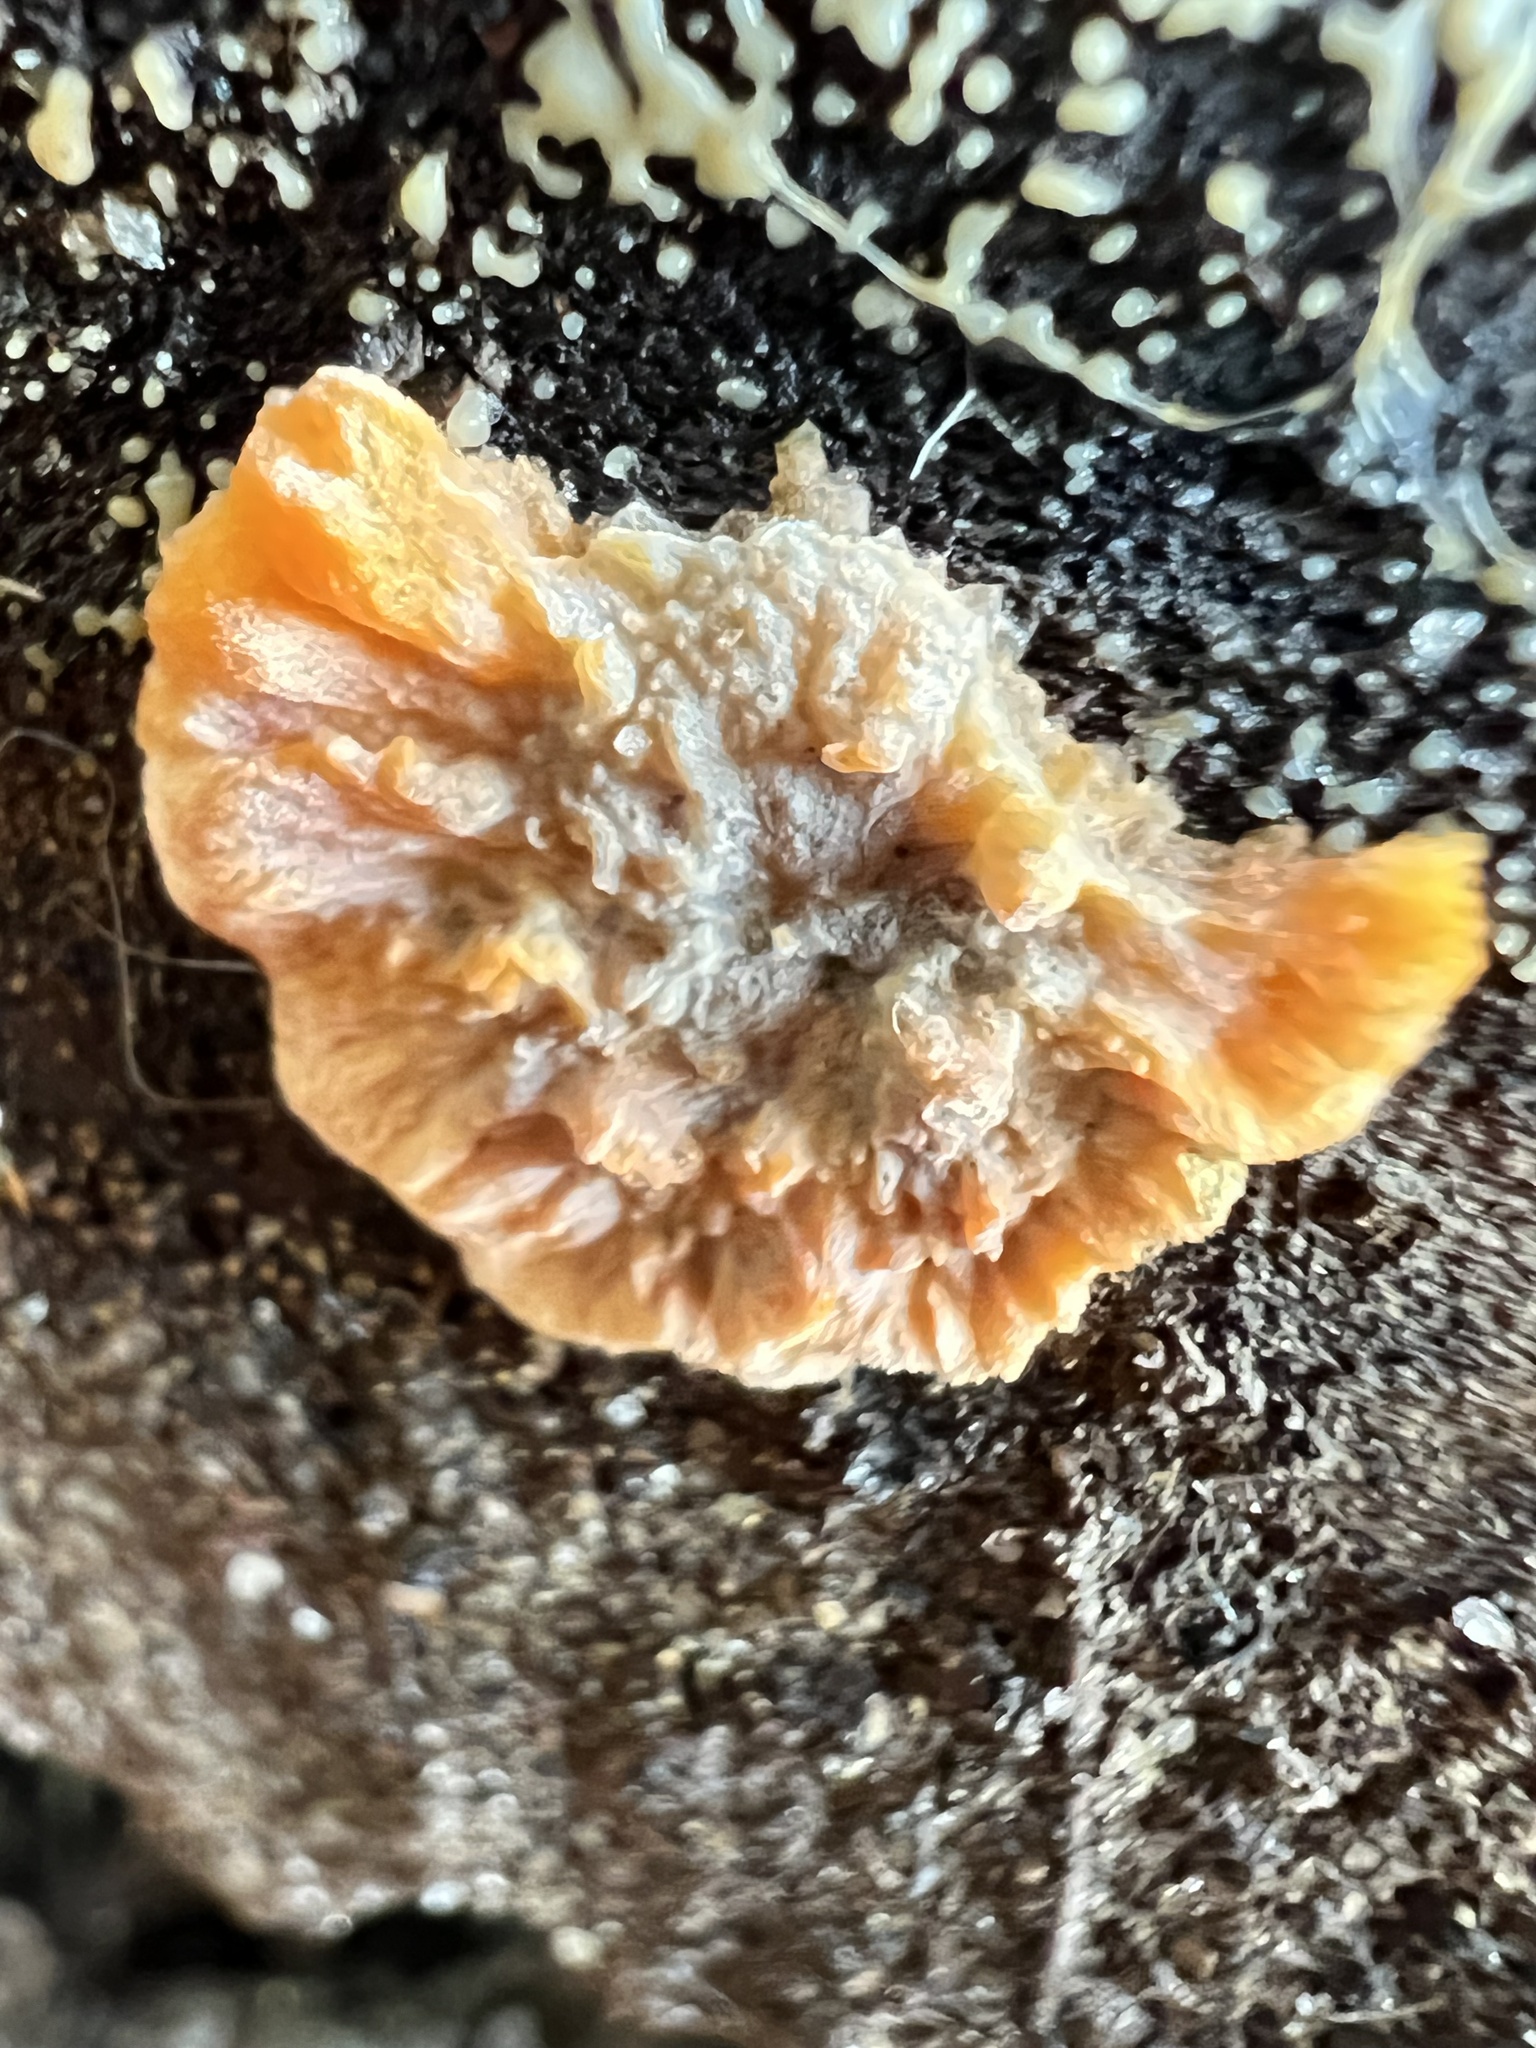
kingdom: Fungi
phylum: Basidiomycota
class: Agaricomycetes
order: Polyporales
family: Meruliaceae
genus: Phlebia
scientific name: Phlebia radiata
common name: Wrinkled crust
